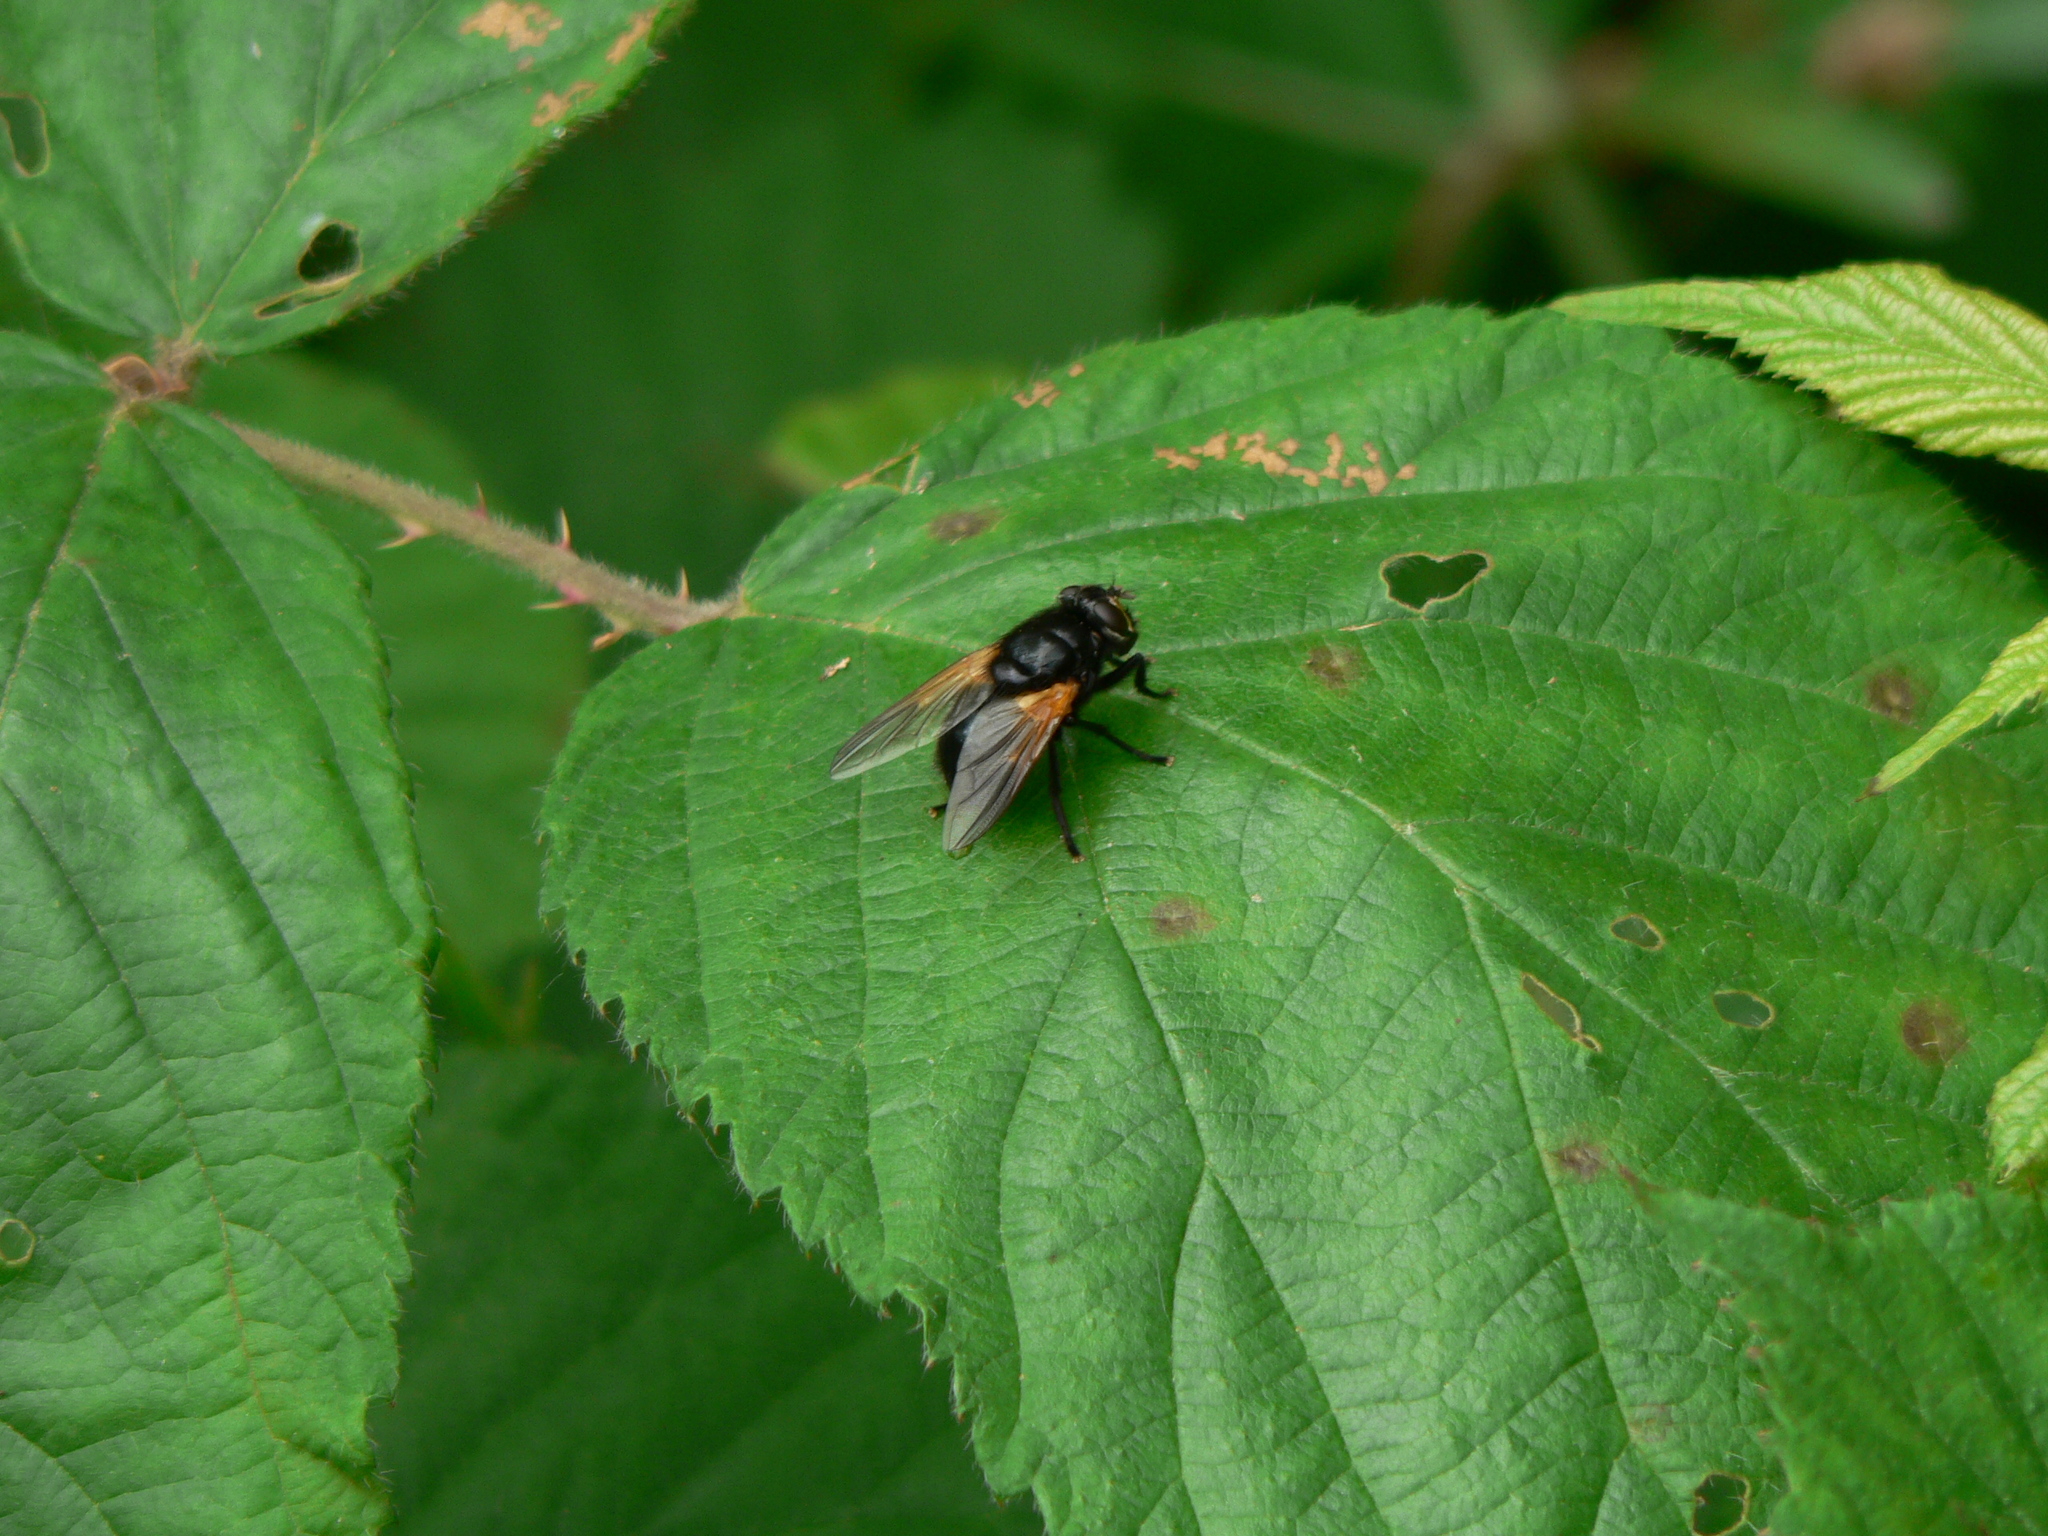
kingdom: Animalia
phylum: Arthropoda
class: Insecta
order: Diptera
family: Muscidae
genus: Mesembrina
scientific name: Mesembrina meridiana
